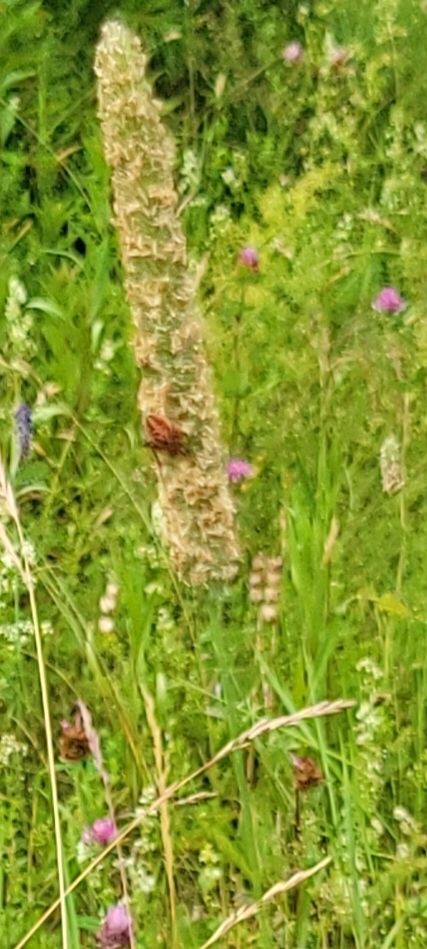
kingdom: Animalia
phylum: Arthropoda
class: Arachnida
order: Araneae
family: Araneidae
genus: Neoscona
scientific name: Neoscona arabesca
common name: Orb weavers
